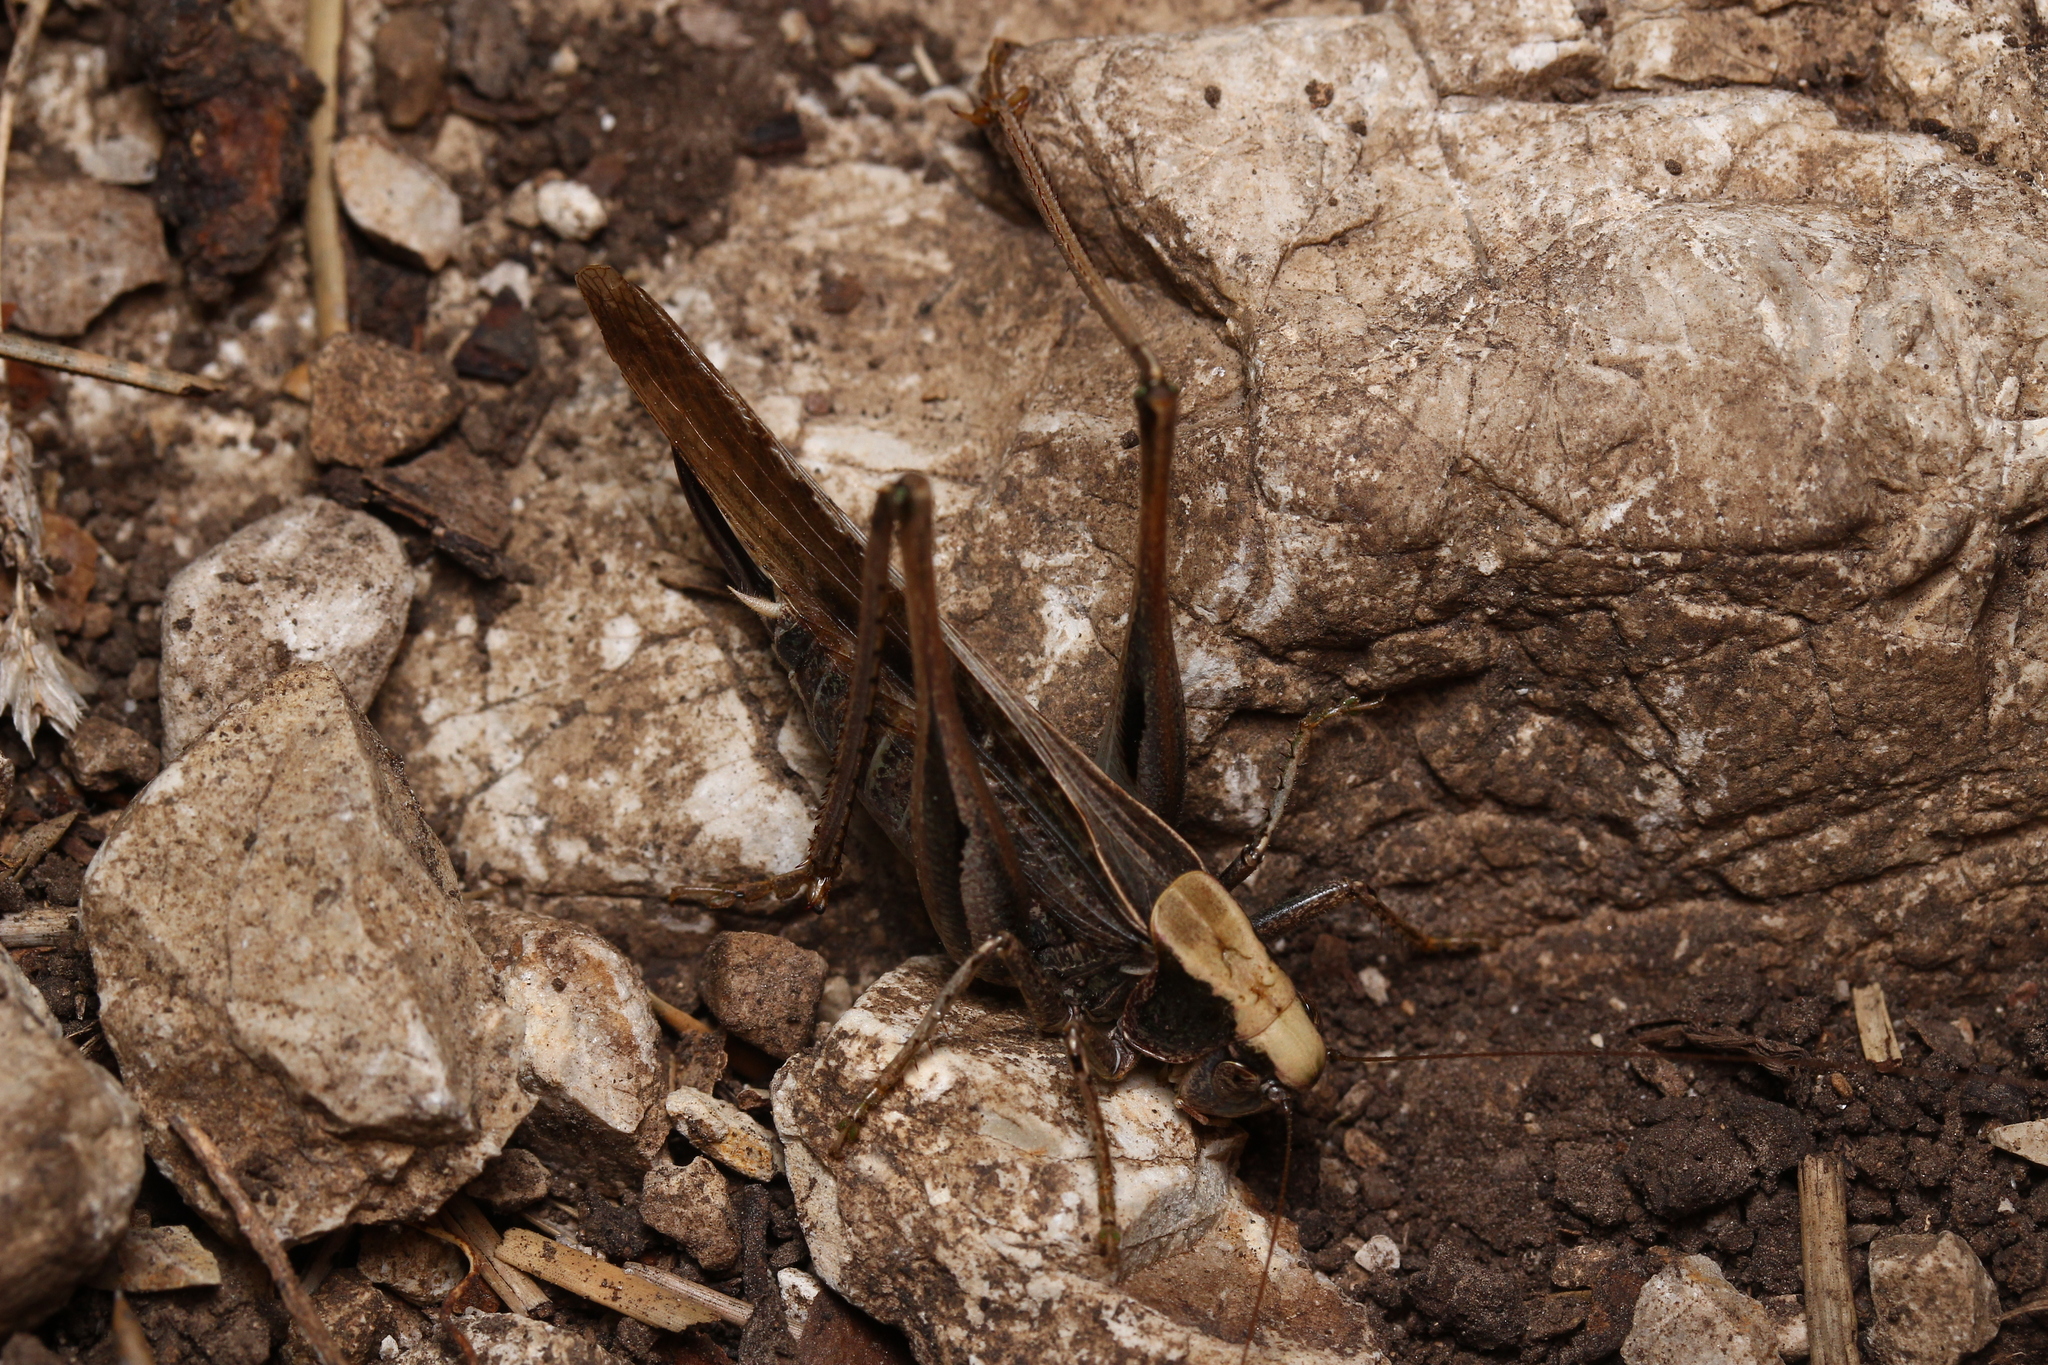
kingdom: Animalia
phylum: Arthropoda
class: Insecta
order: Orthoptera
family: Tettigoniidae
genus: Platycleis
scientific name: Platycleis grisea
